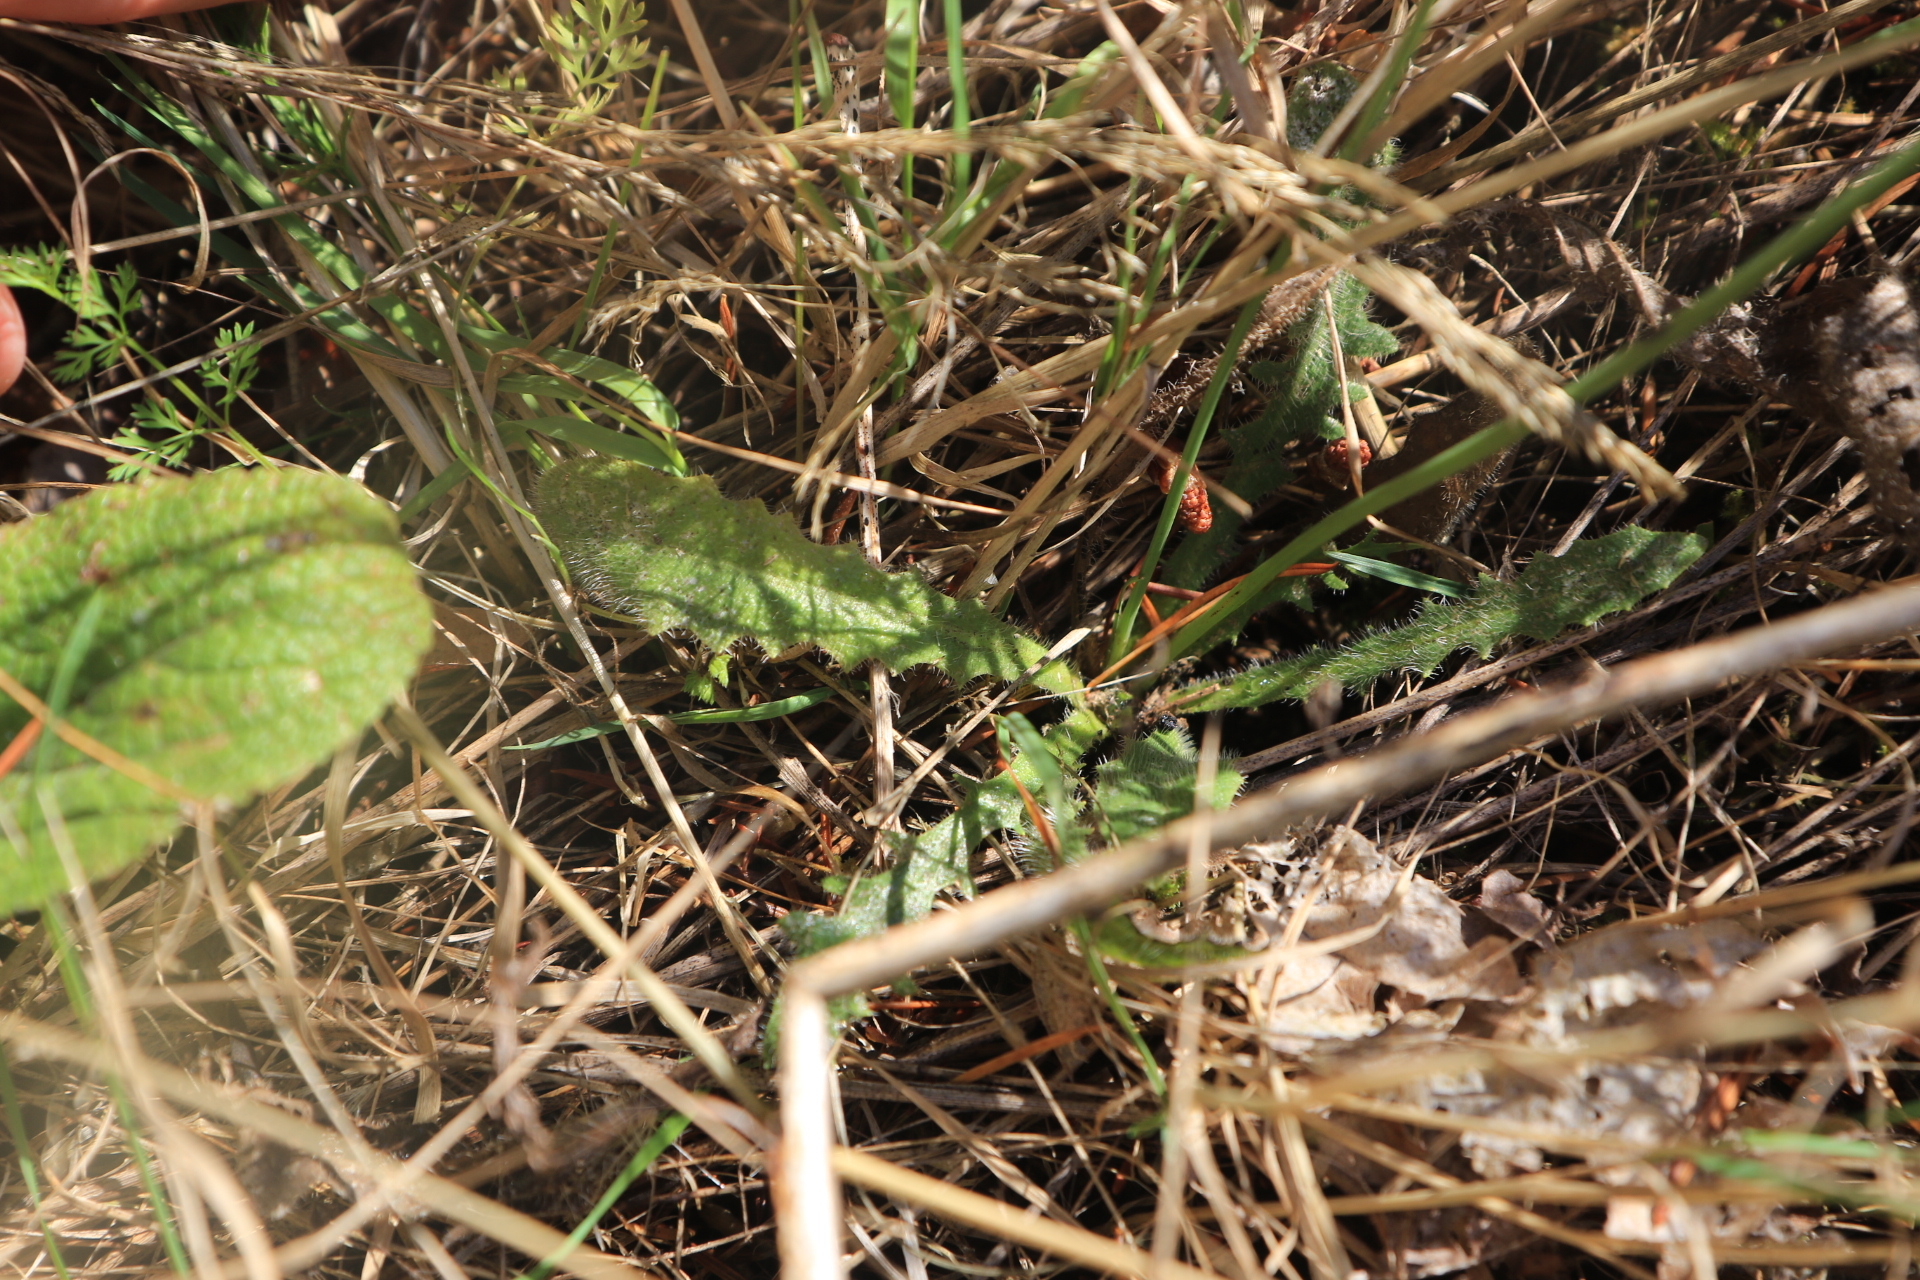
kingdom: Plantae
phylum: Tracheophyta
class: Magnoliopsida
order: Asterales
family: Asteraceae
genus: Hypochaeris
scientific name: Hypochaeris radicata
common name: Flatweed
